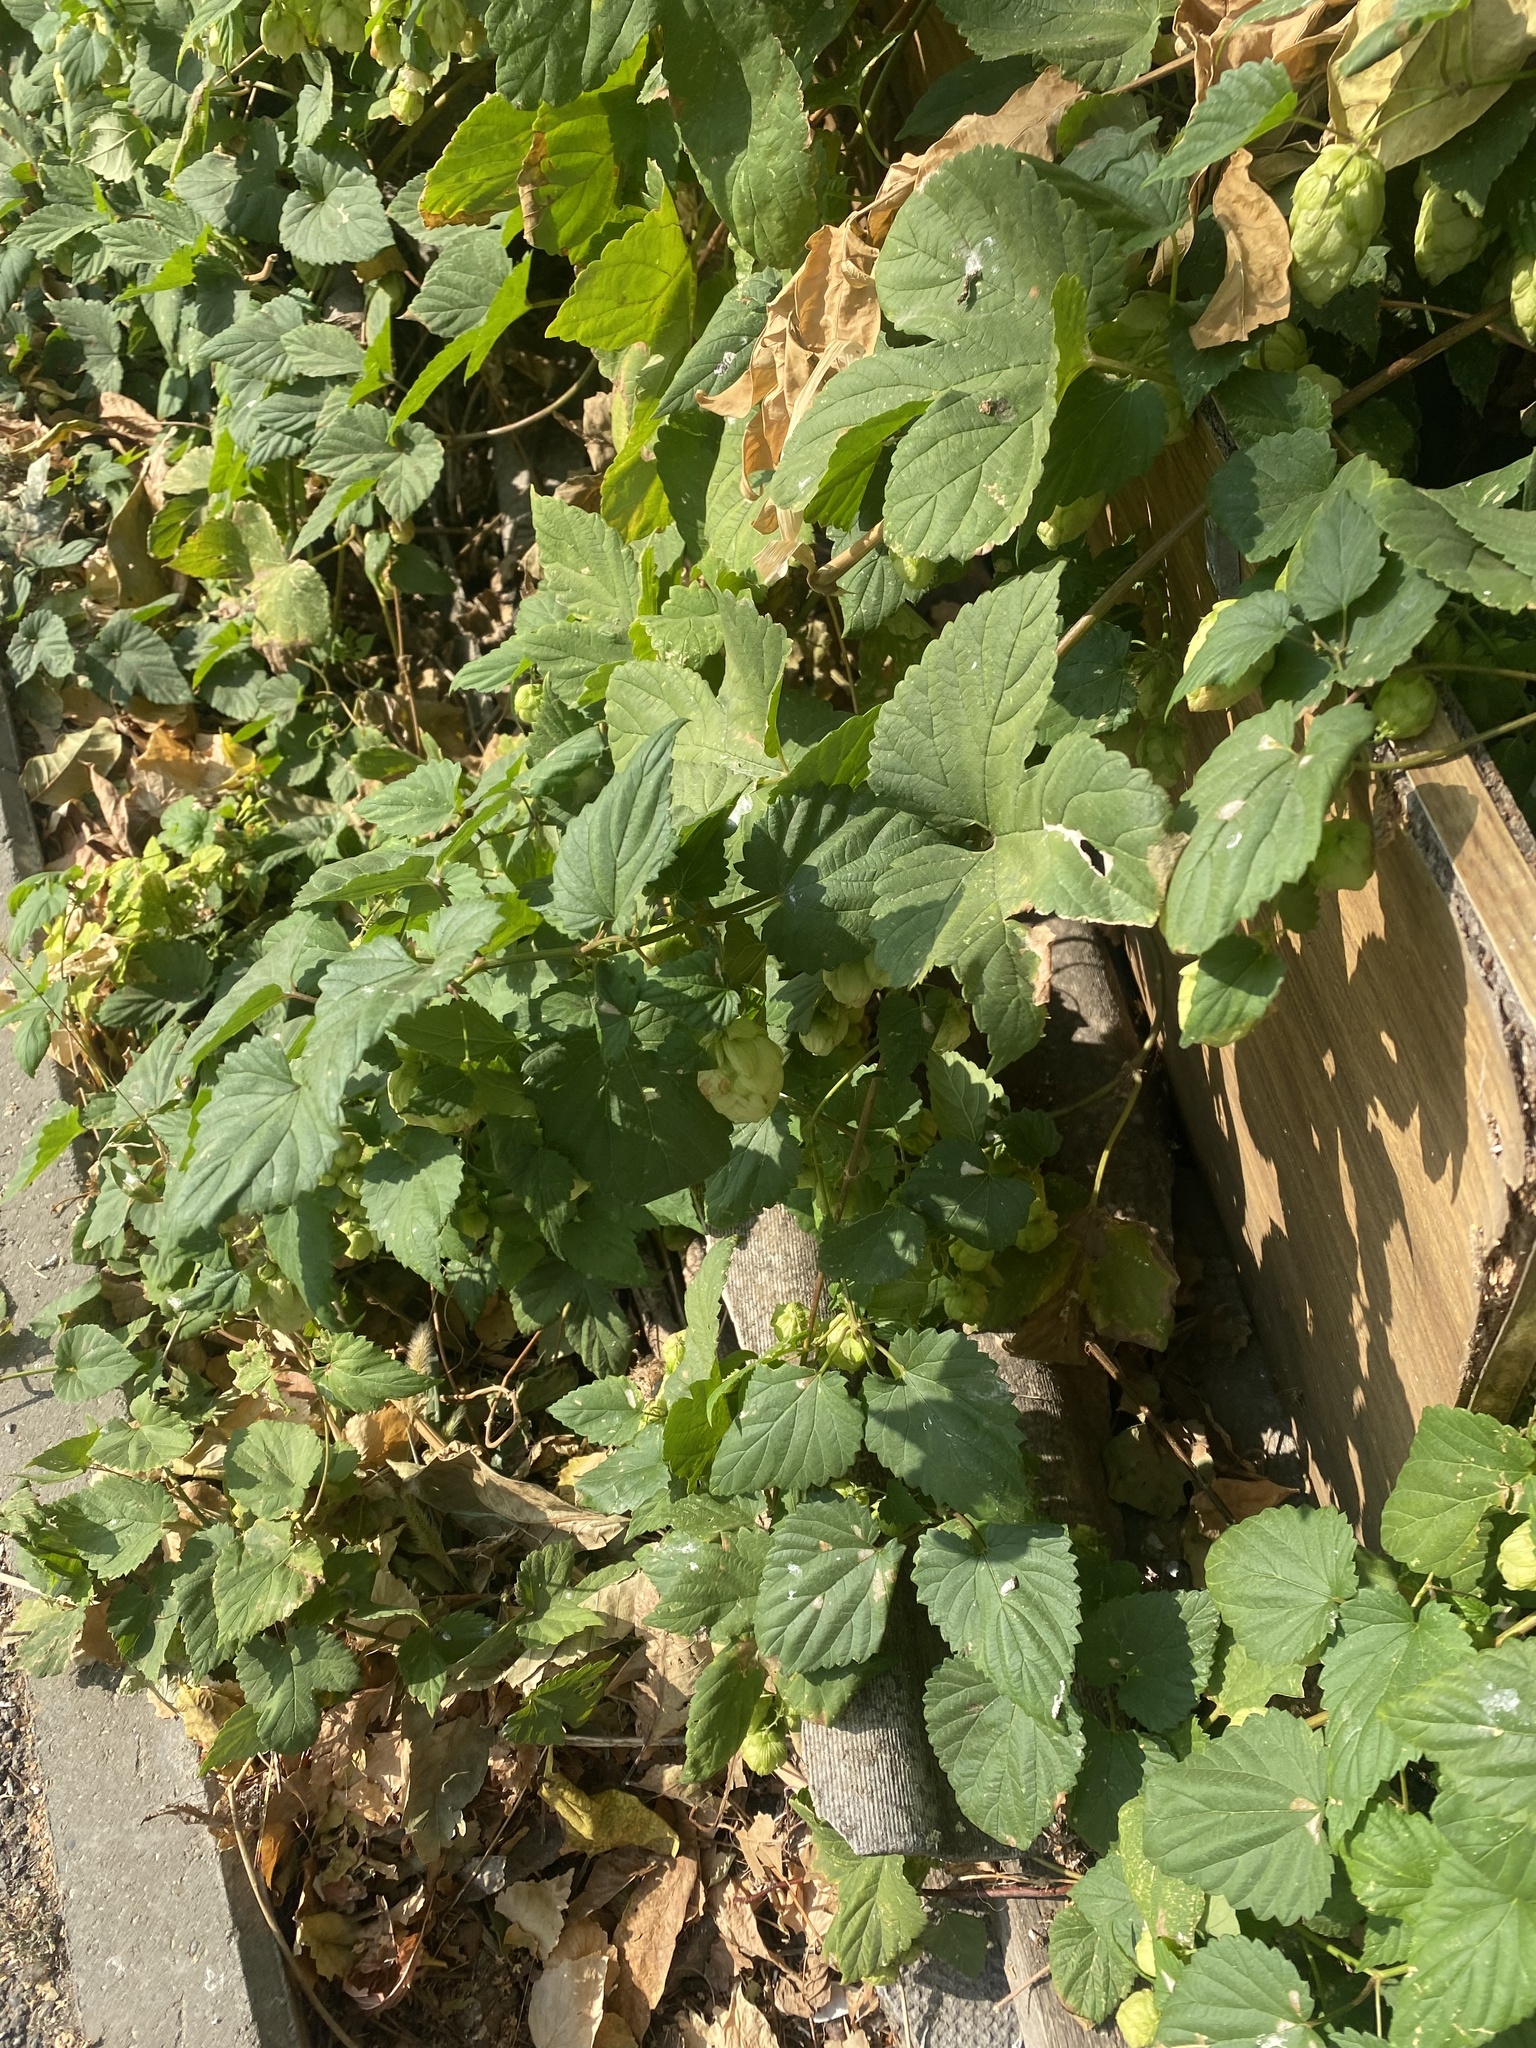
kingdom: Plantae
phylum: Tracheophyta
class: Magnoliopsida
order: Rosales
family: Cannabaceae
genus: Humulus
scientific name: Humulus lupulus
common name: Hop
